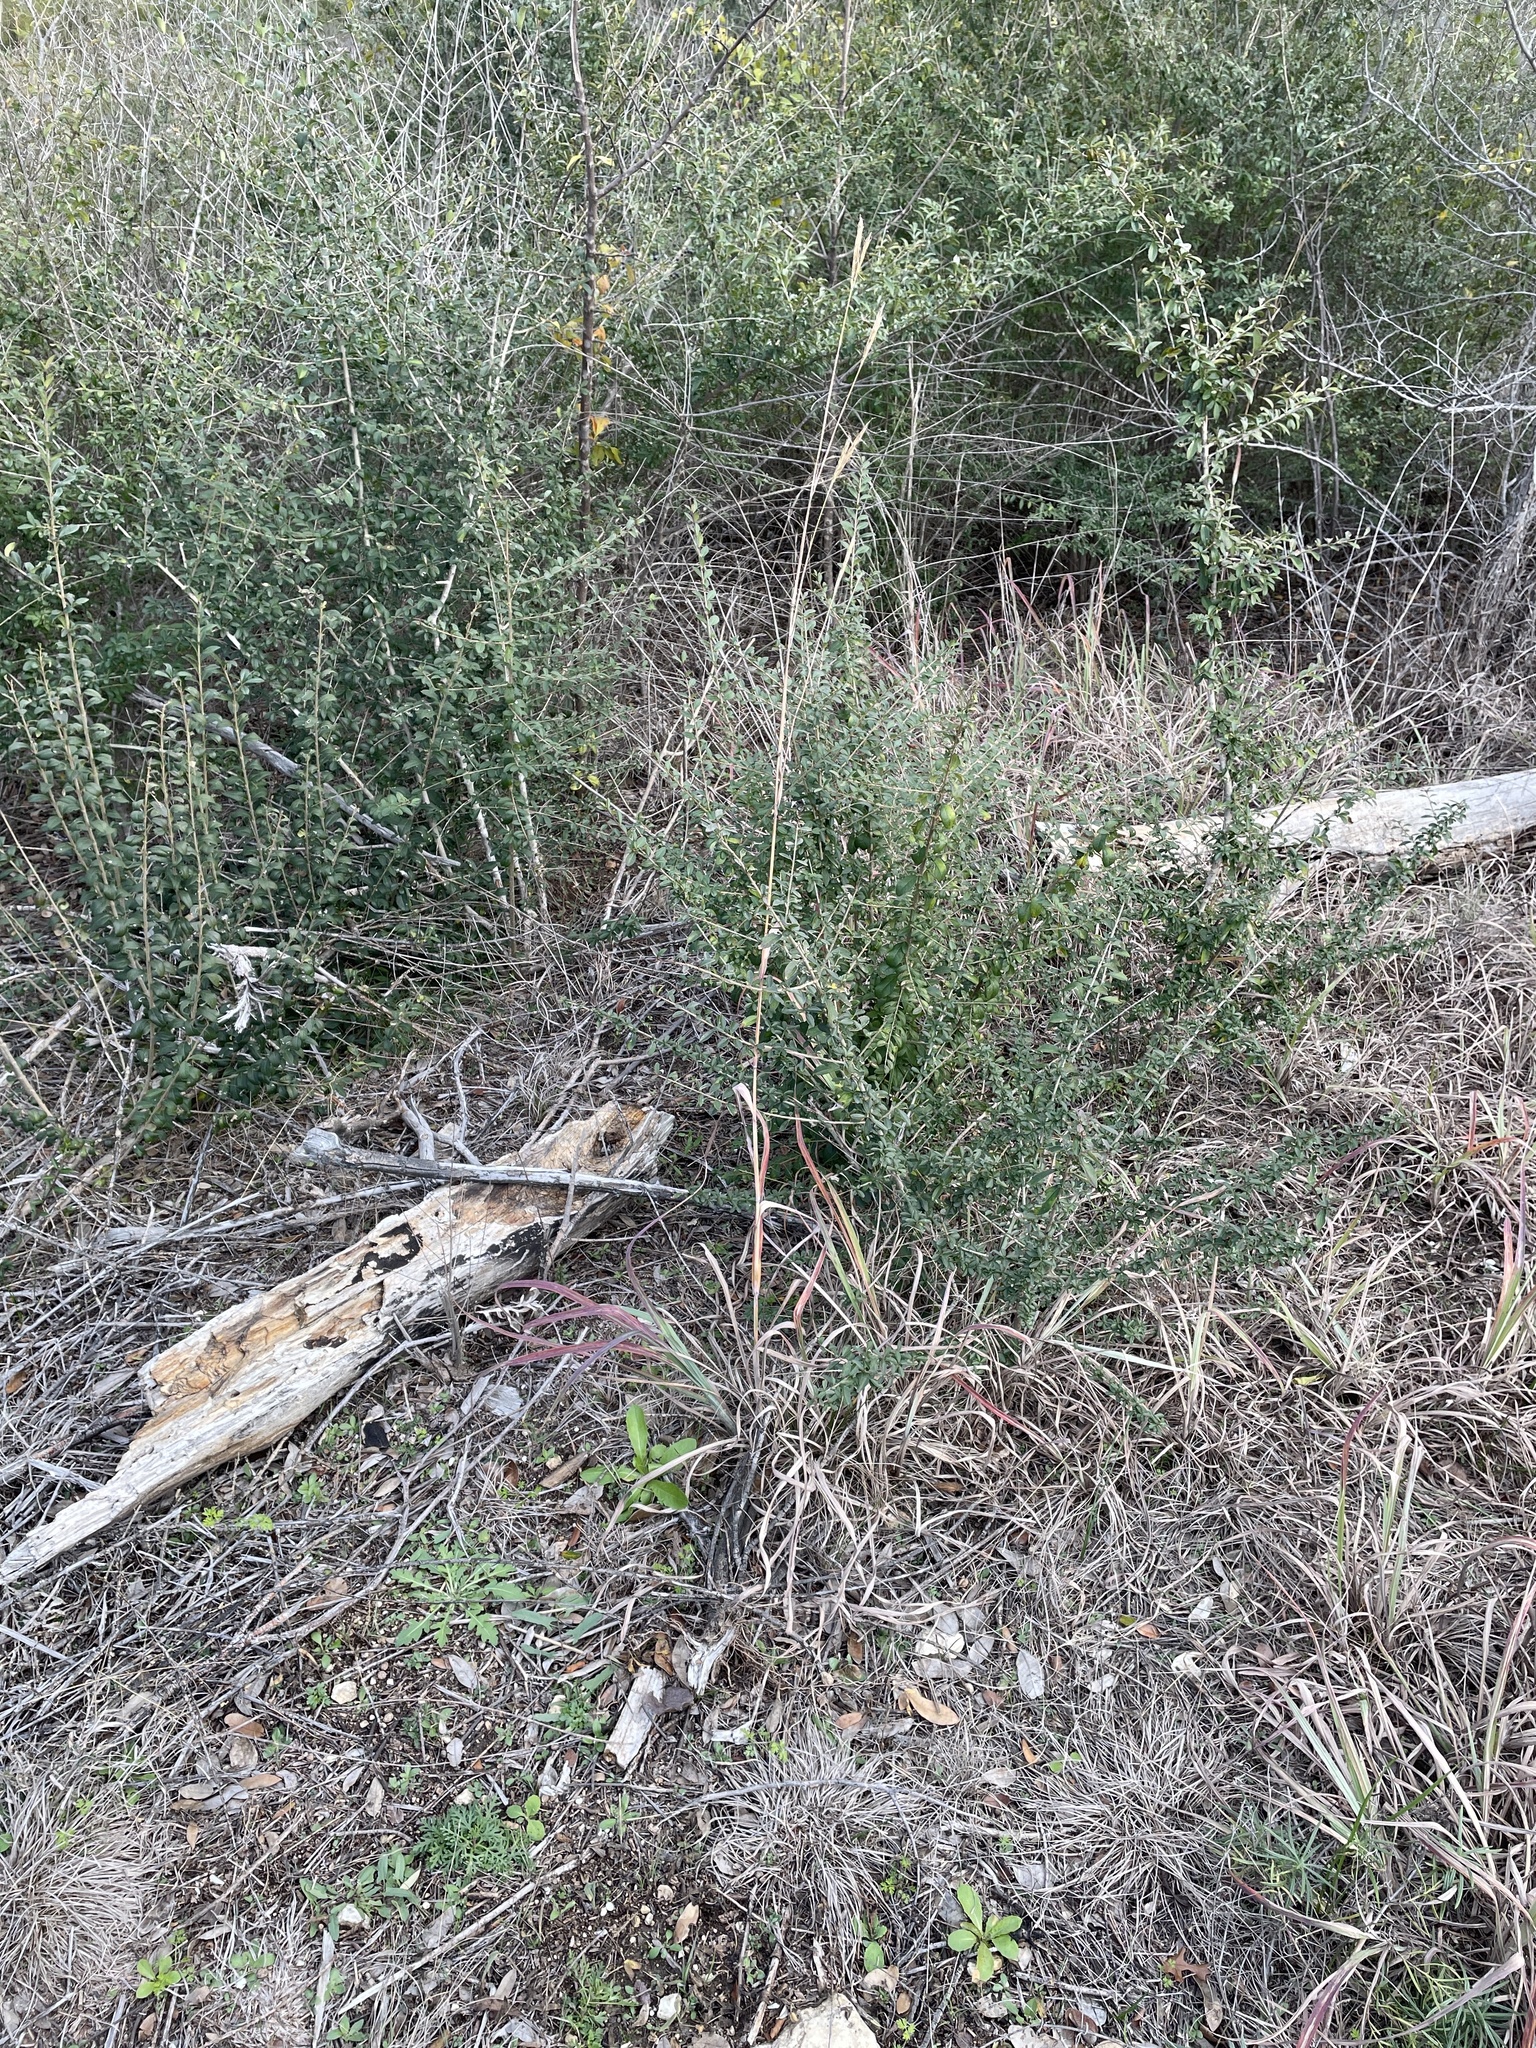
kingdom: Plantae
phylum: Tracheophyta
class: Liliopsida
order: Poales
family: Poaceae
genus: Andropogon
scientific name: Andropogon gerardi
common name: Big bluestem
